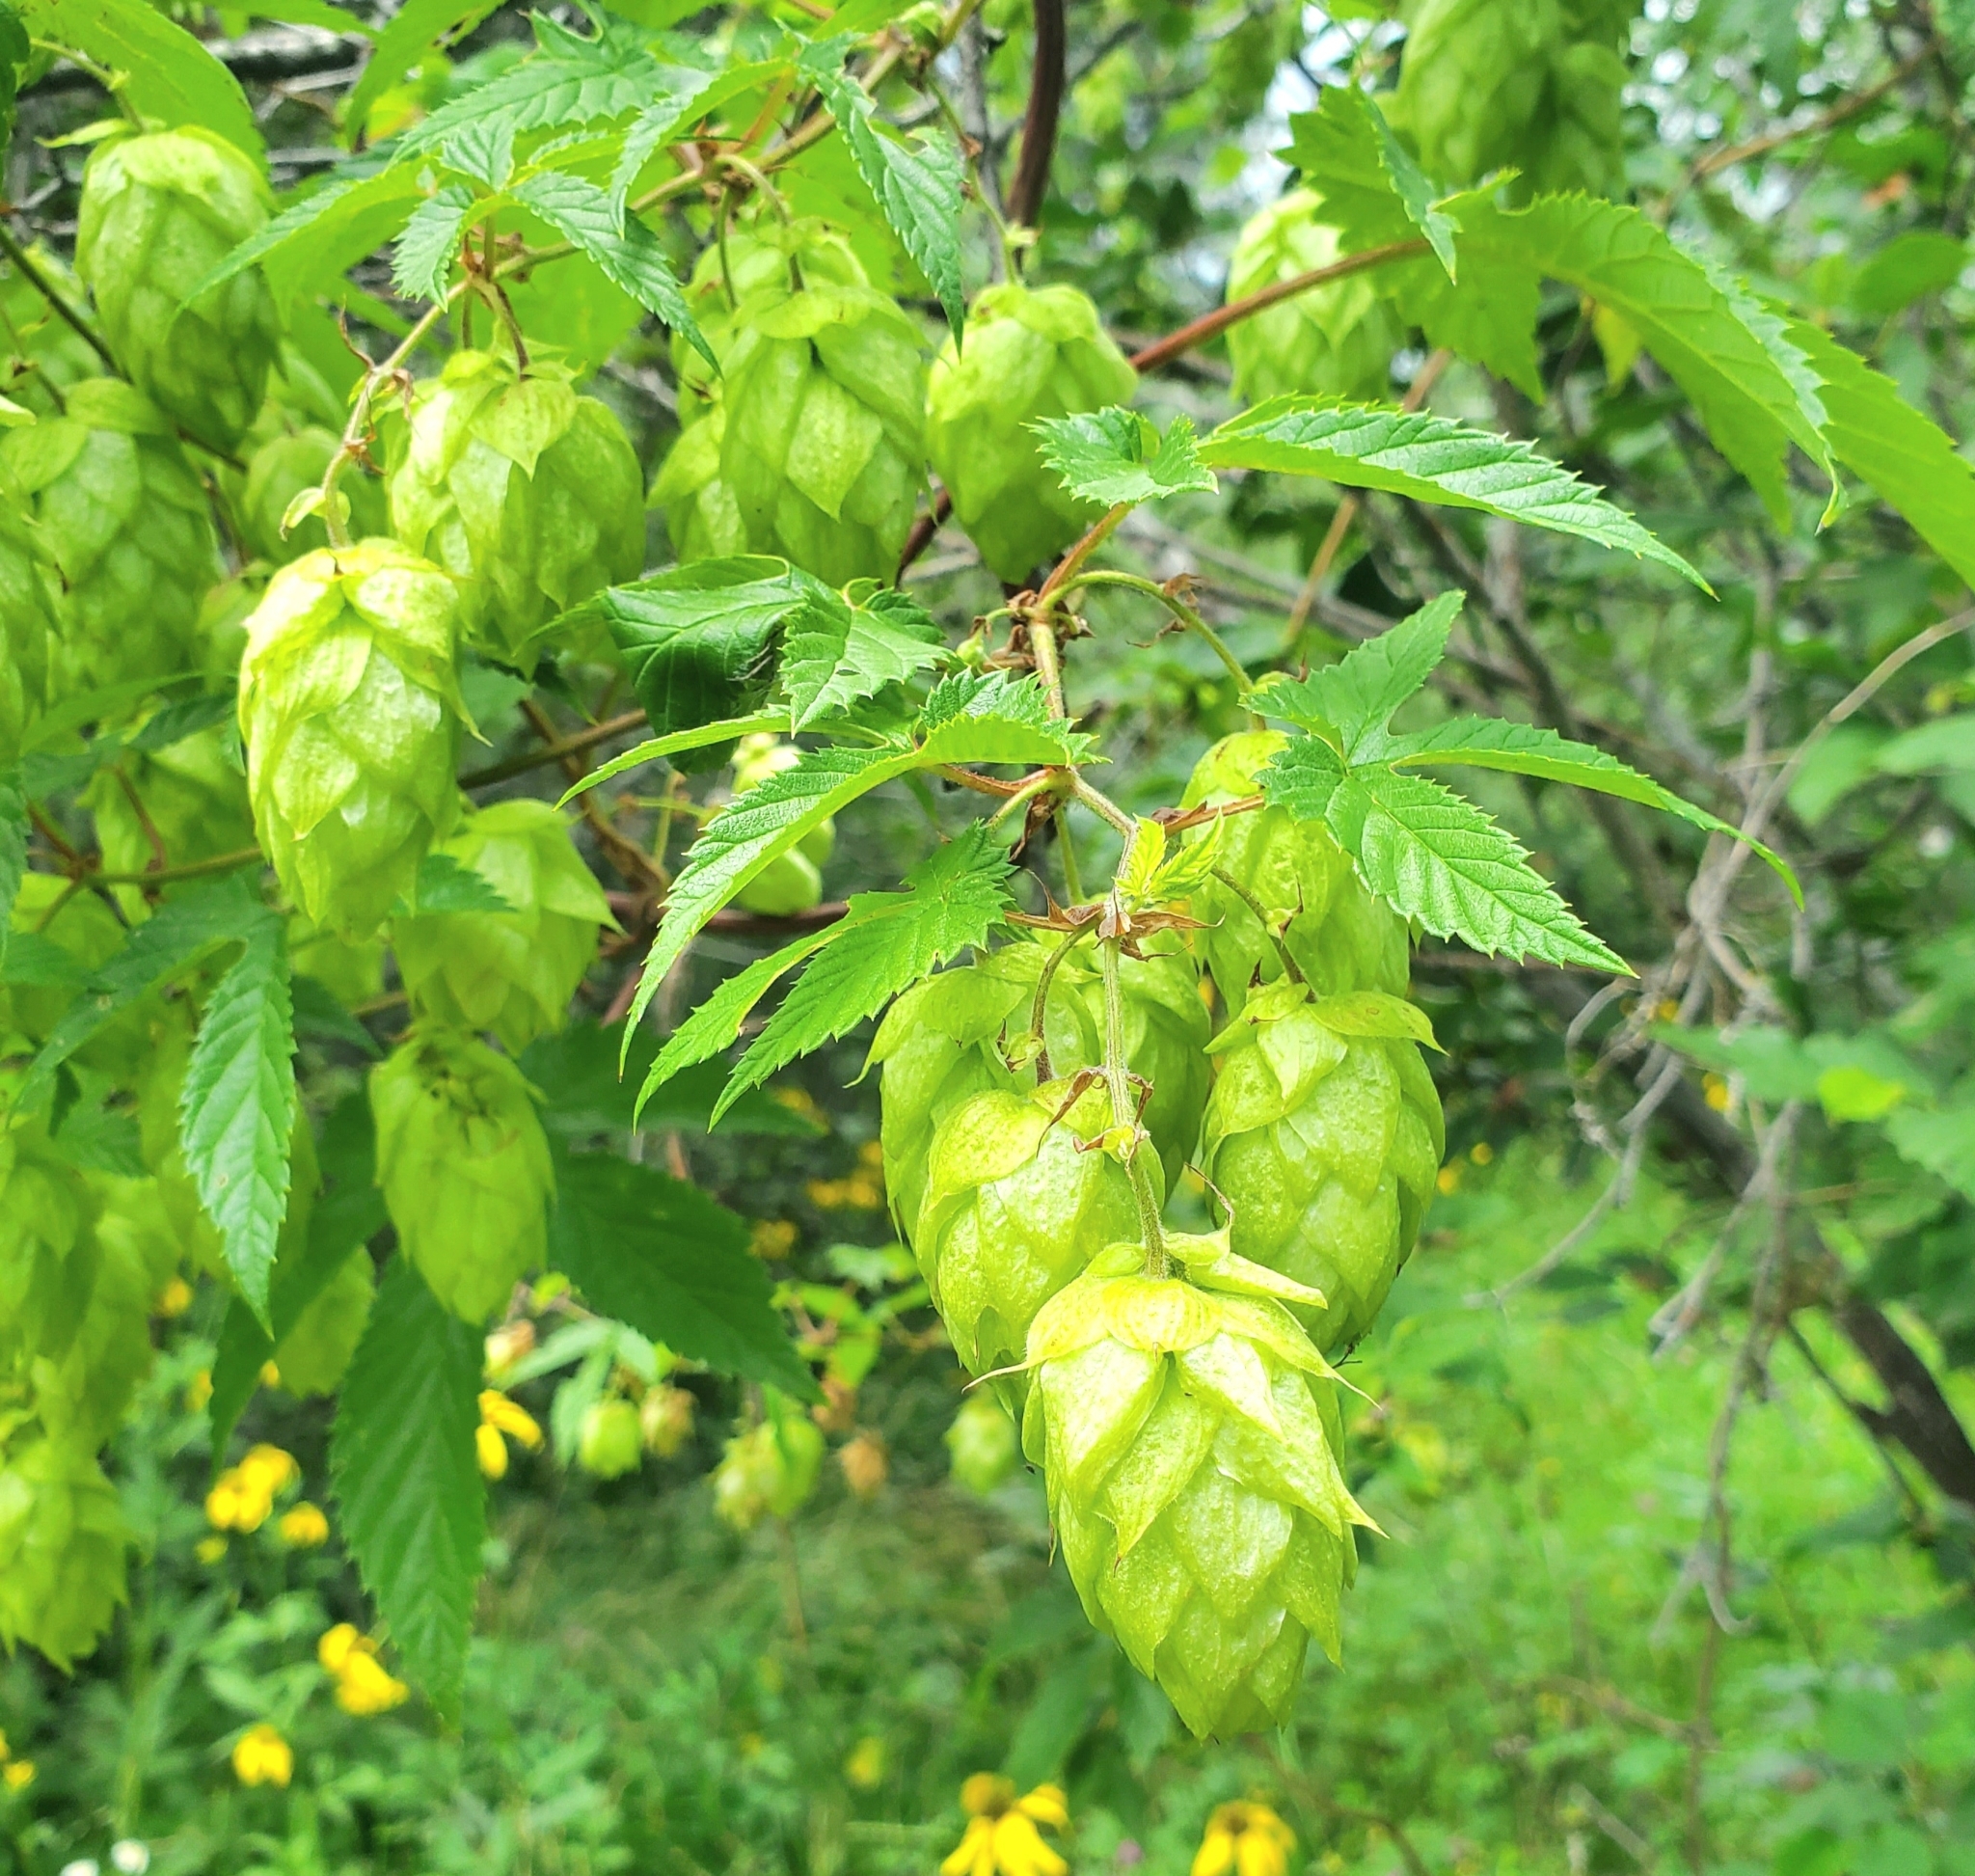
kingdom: Plantae
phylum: Tracheophyta
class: Magnoliopsida
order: Rosales
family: Cannabaceae
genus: Humulus
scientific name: Humulus lupulus
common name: Hop
